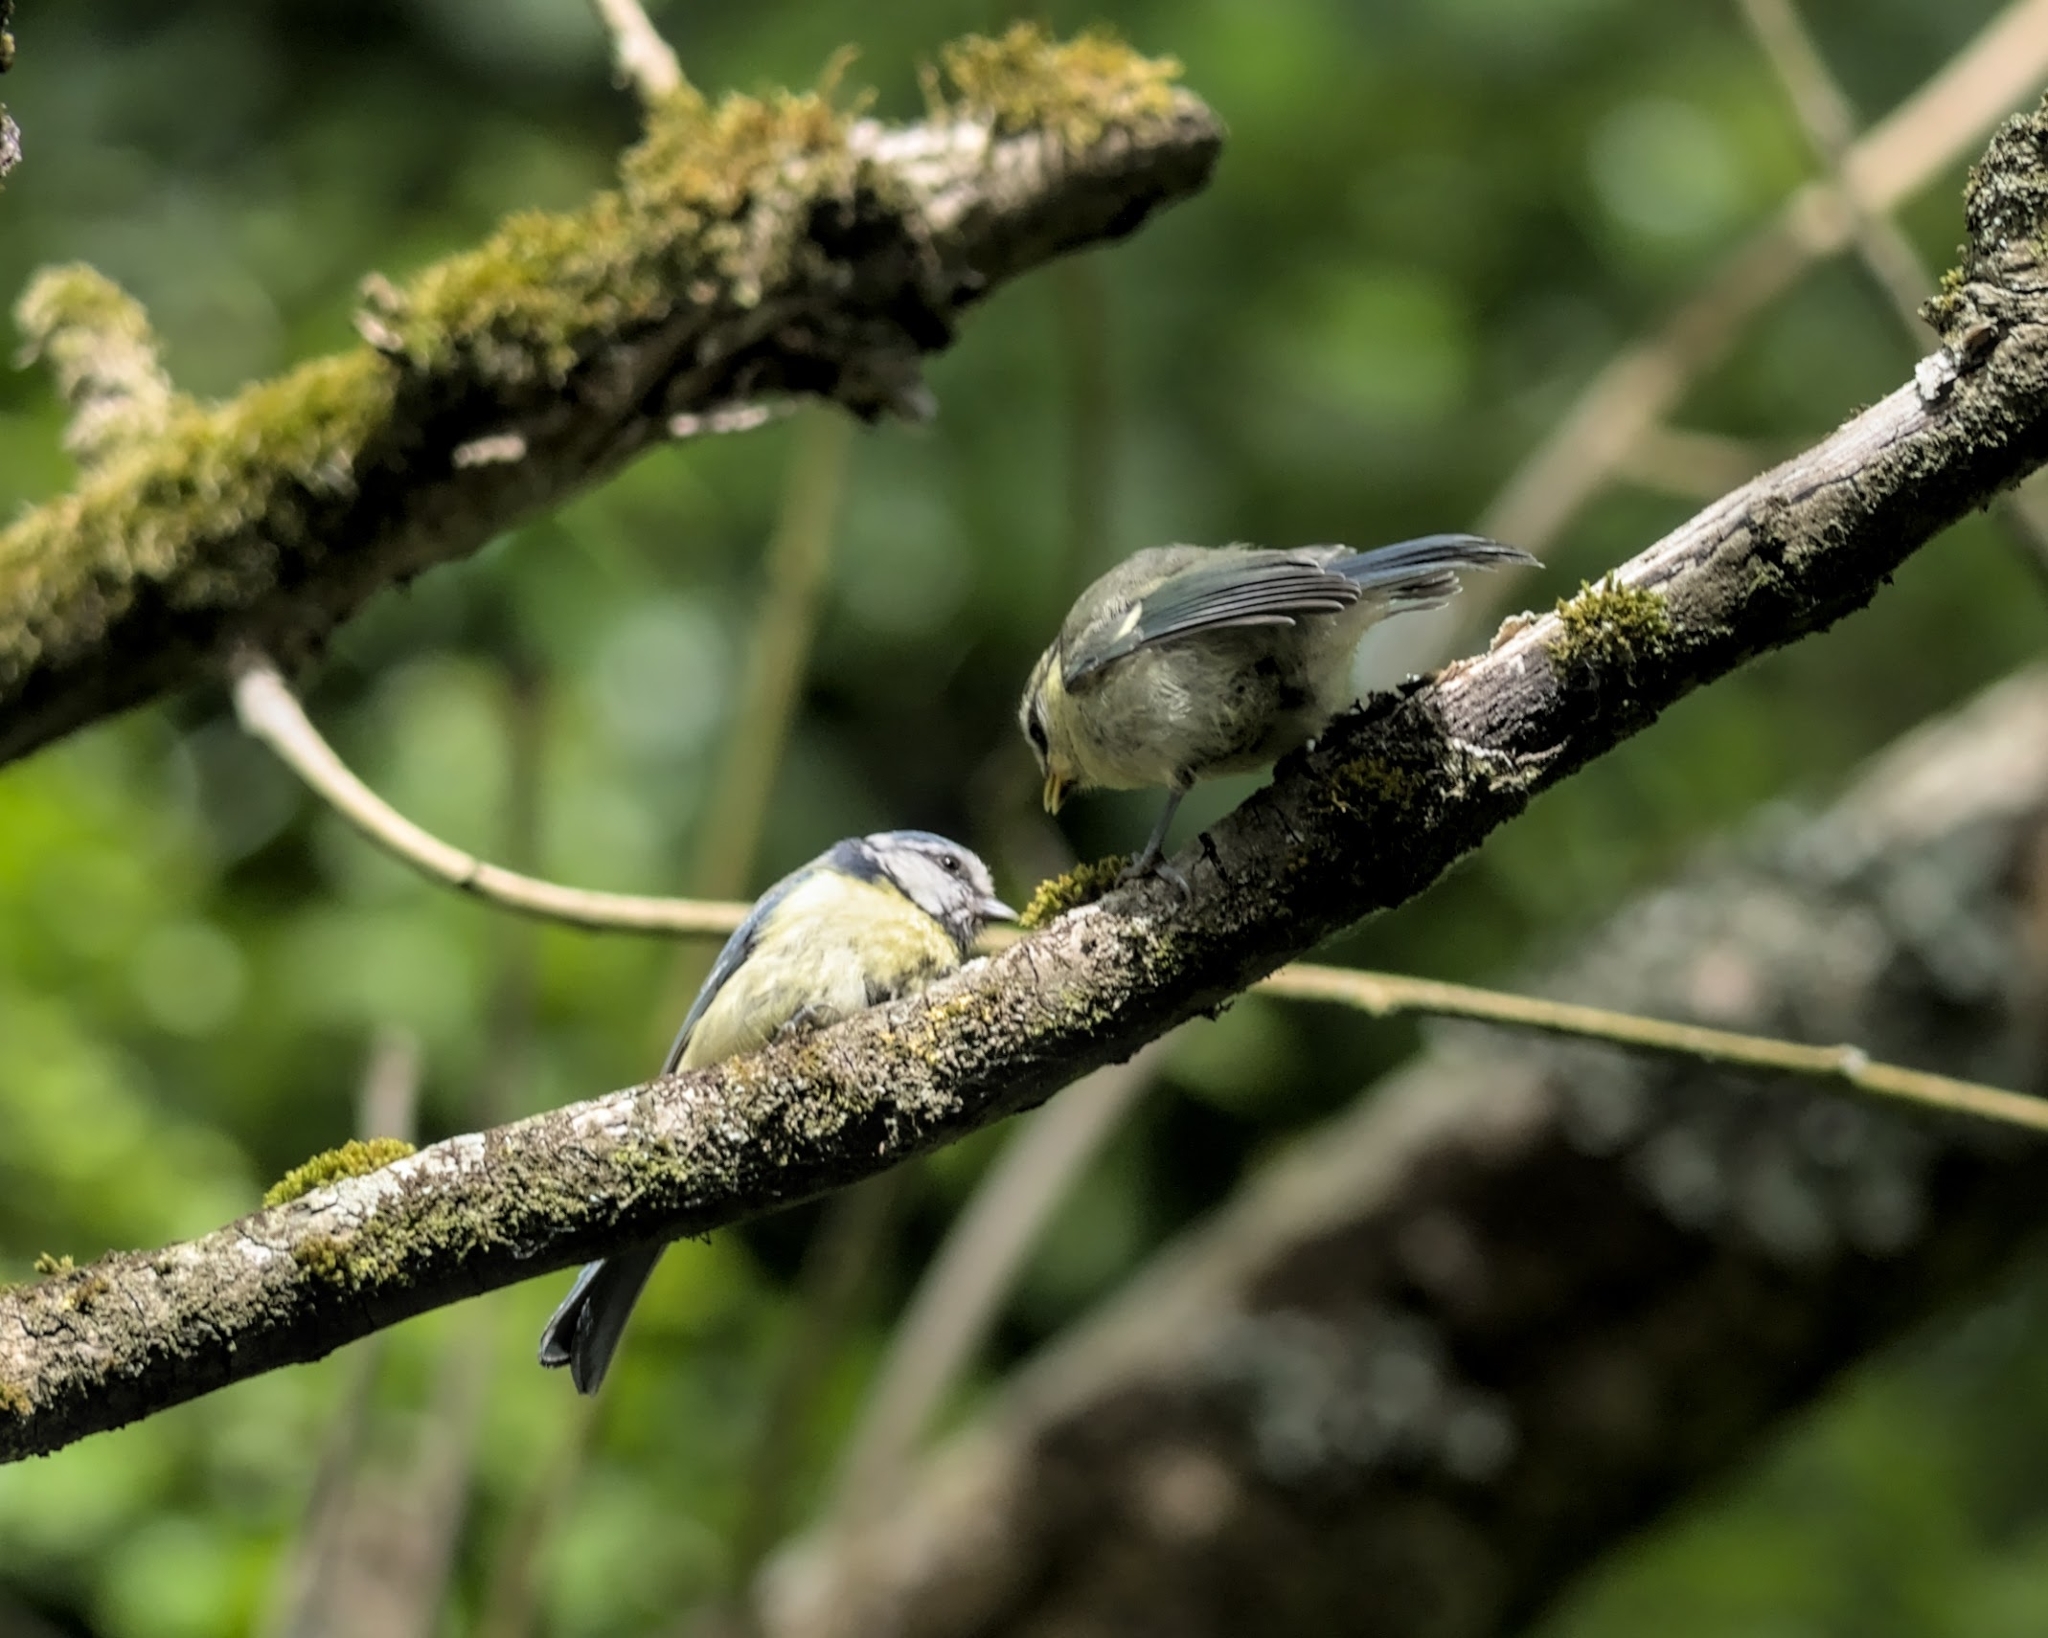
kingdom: Animalia
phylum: Chordata
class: Aves
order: Passeriformes
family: Paridae
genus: Cyanistes
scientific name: Cyanistes caeruleus
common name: Eurasian blue tit
